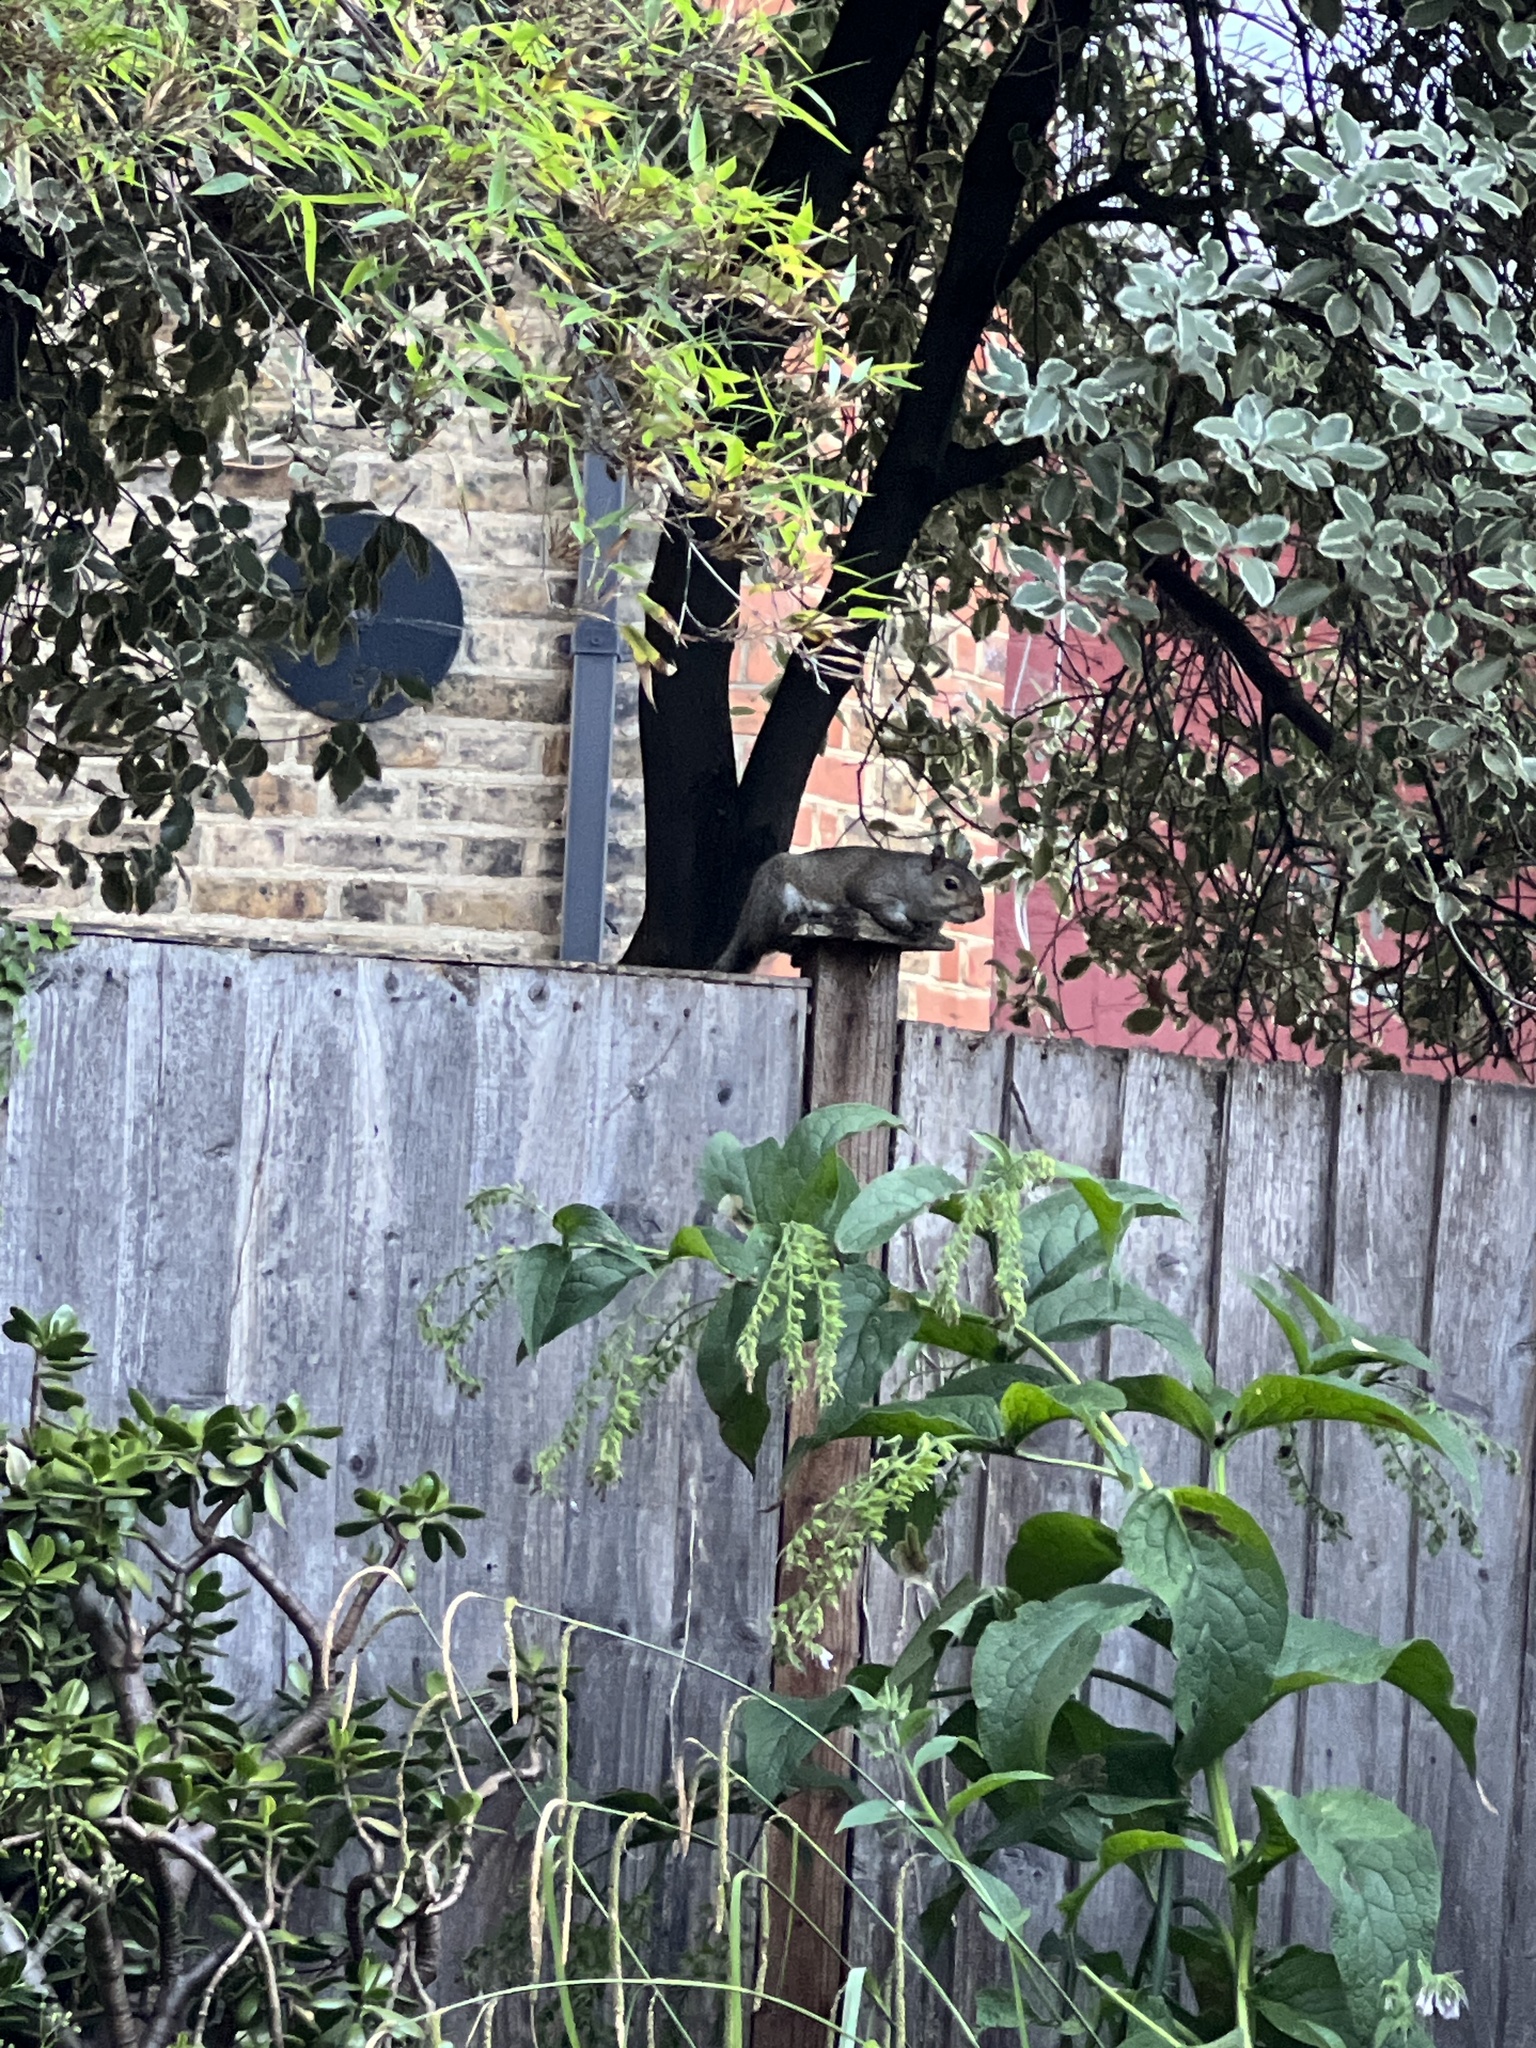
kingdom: Animalia
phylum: Chordata
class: Mammalia
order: Rodentia
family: Sciuridae
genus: Sciurus
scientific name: Sciurus carolinensis
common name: Eastern gray squirrel
